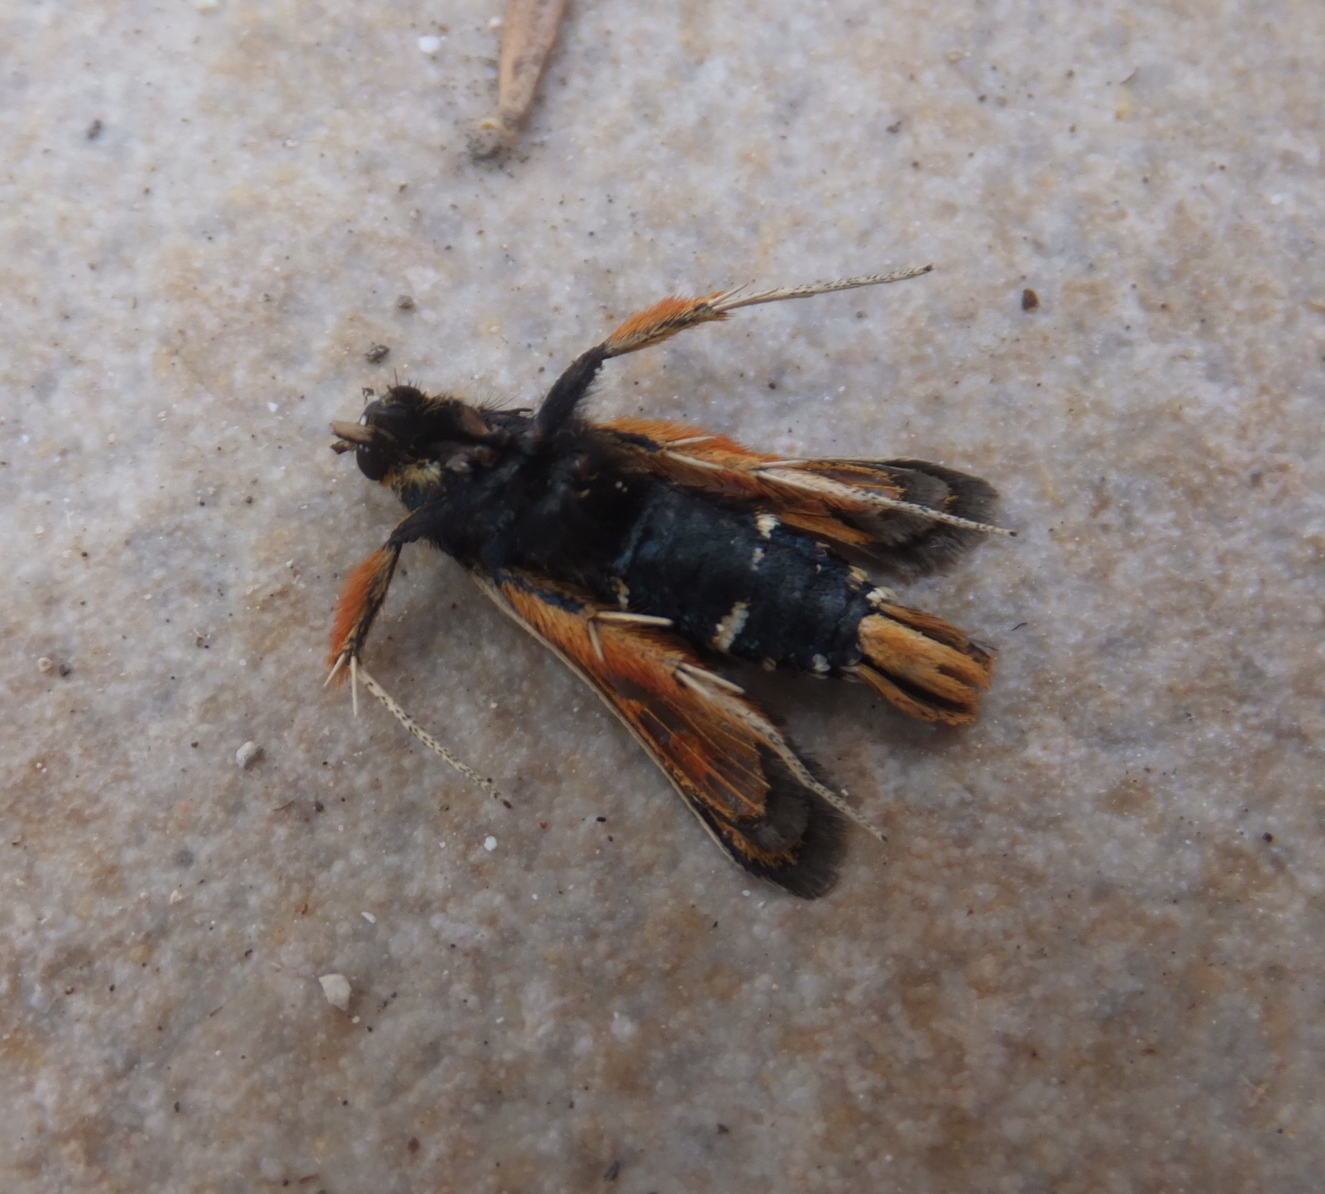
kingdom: Animalia
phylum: Arthropoda
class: Insecta
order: Lepidoptera
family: Sesiidae
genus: Pyropteron
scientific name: Pyropteron chrysidiforme
